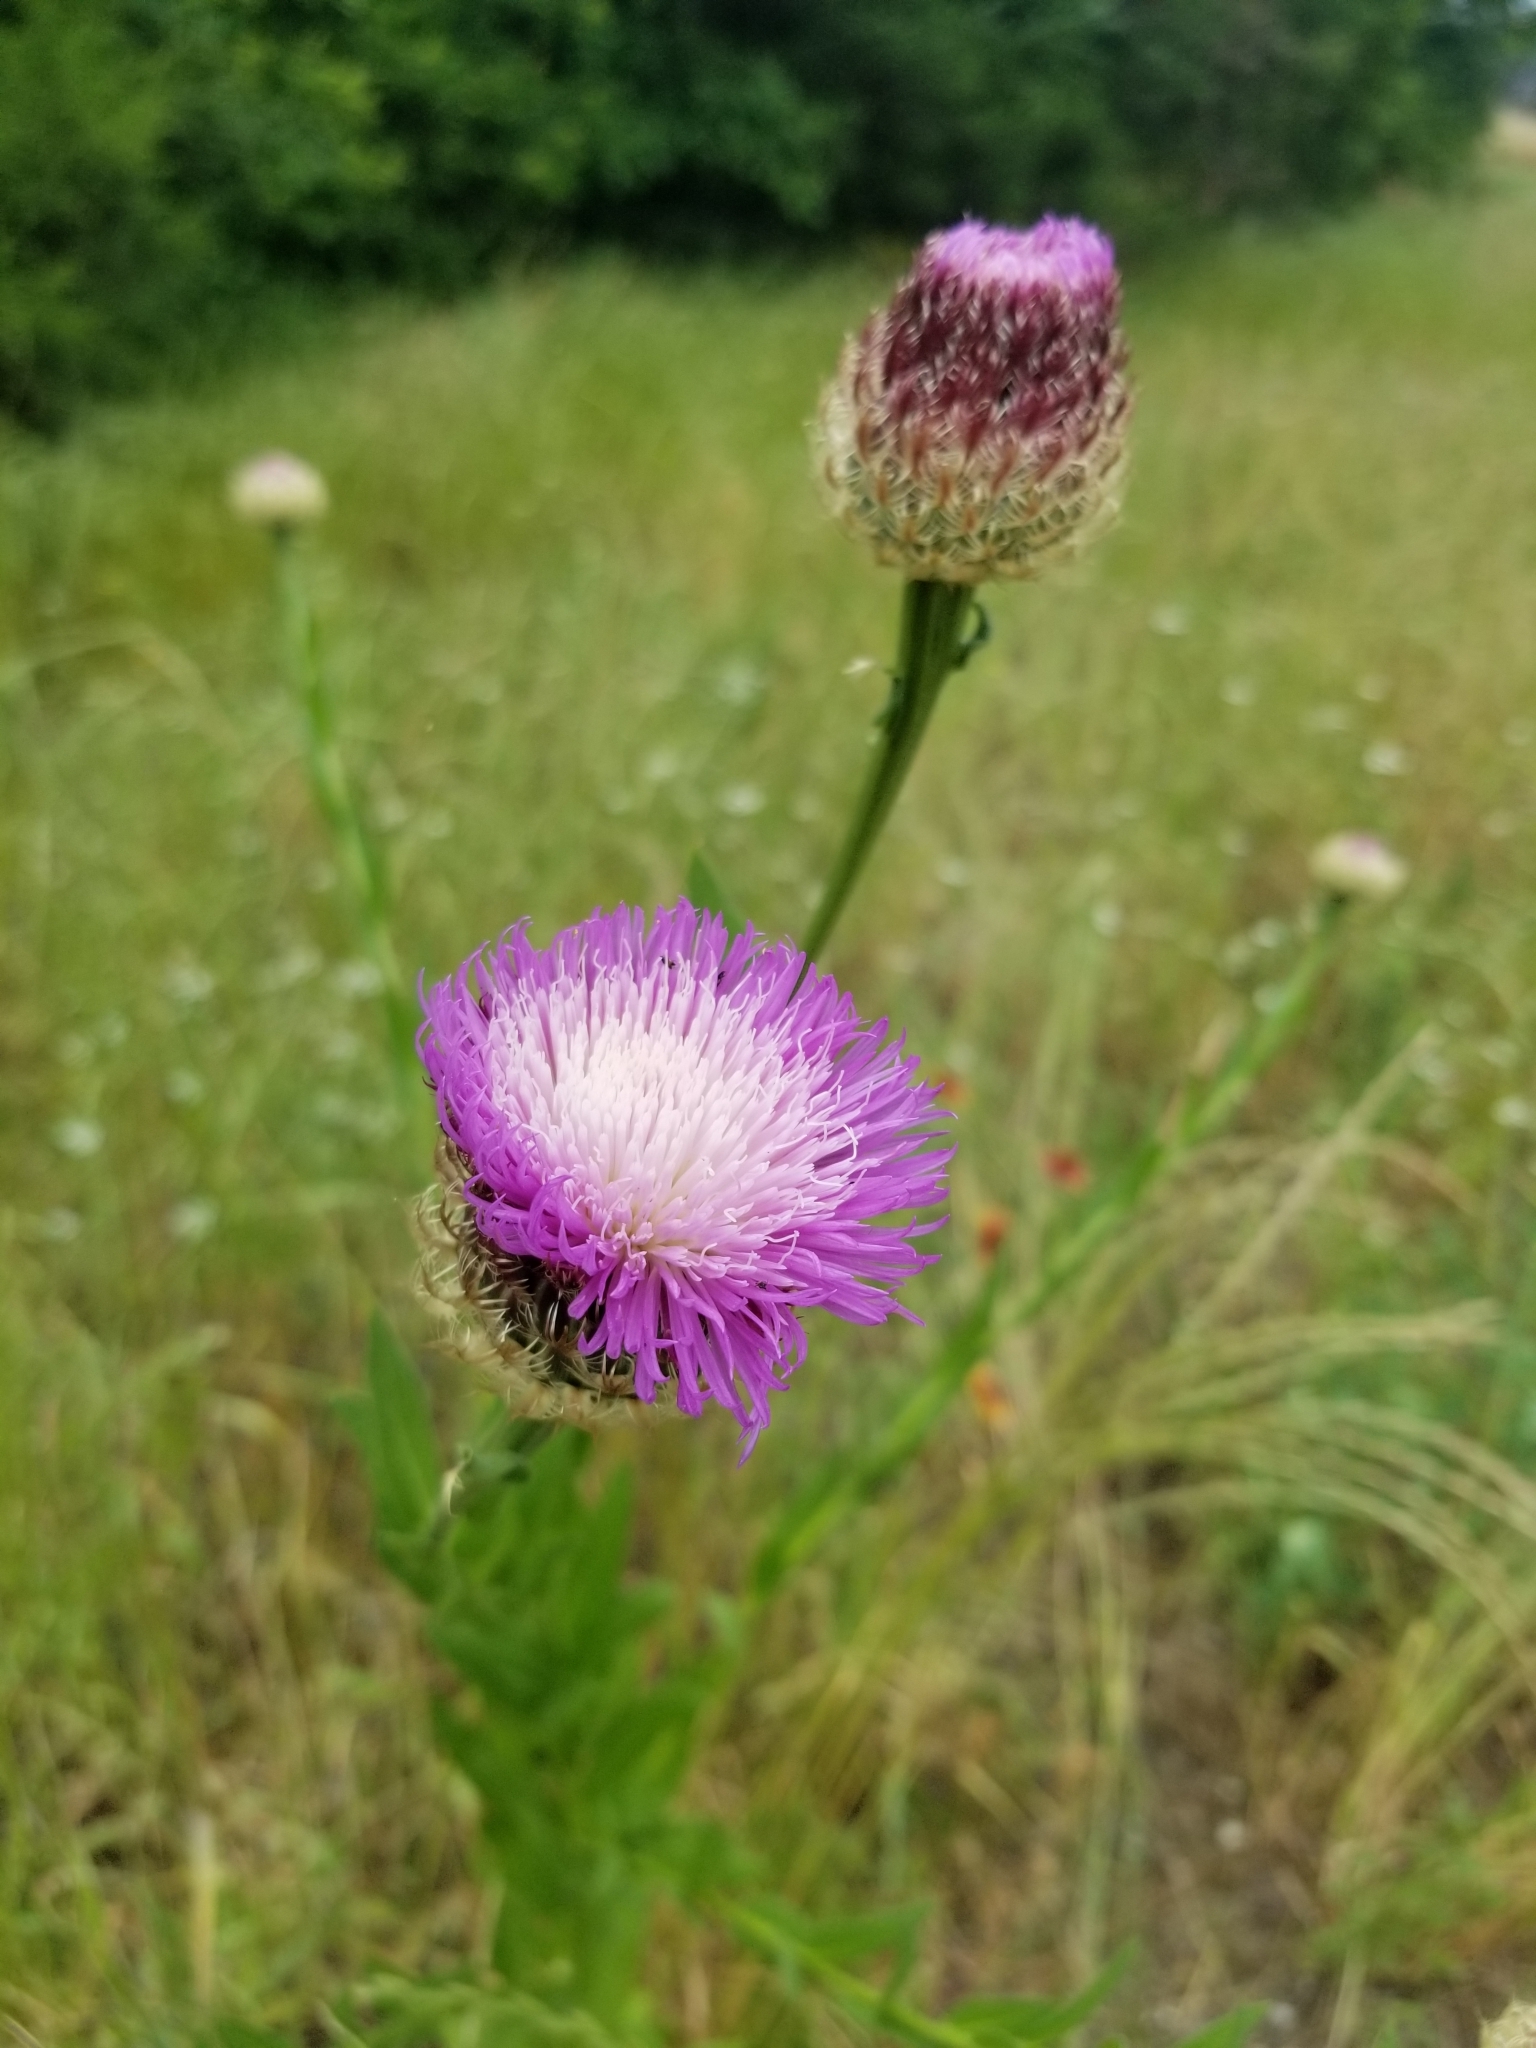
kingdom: Plantae
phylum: Tracheophyta
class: Magnoliopsida
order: Asterales
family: Asteraceae
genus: Plectocephalus
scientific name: Plectocephalus americanus
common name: American basket-flower
